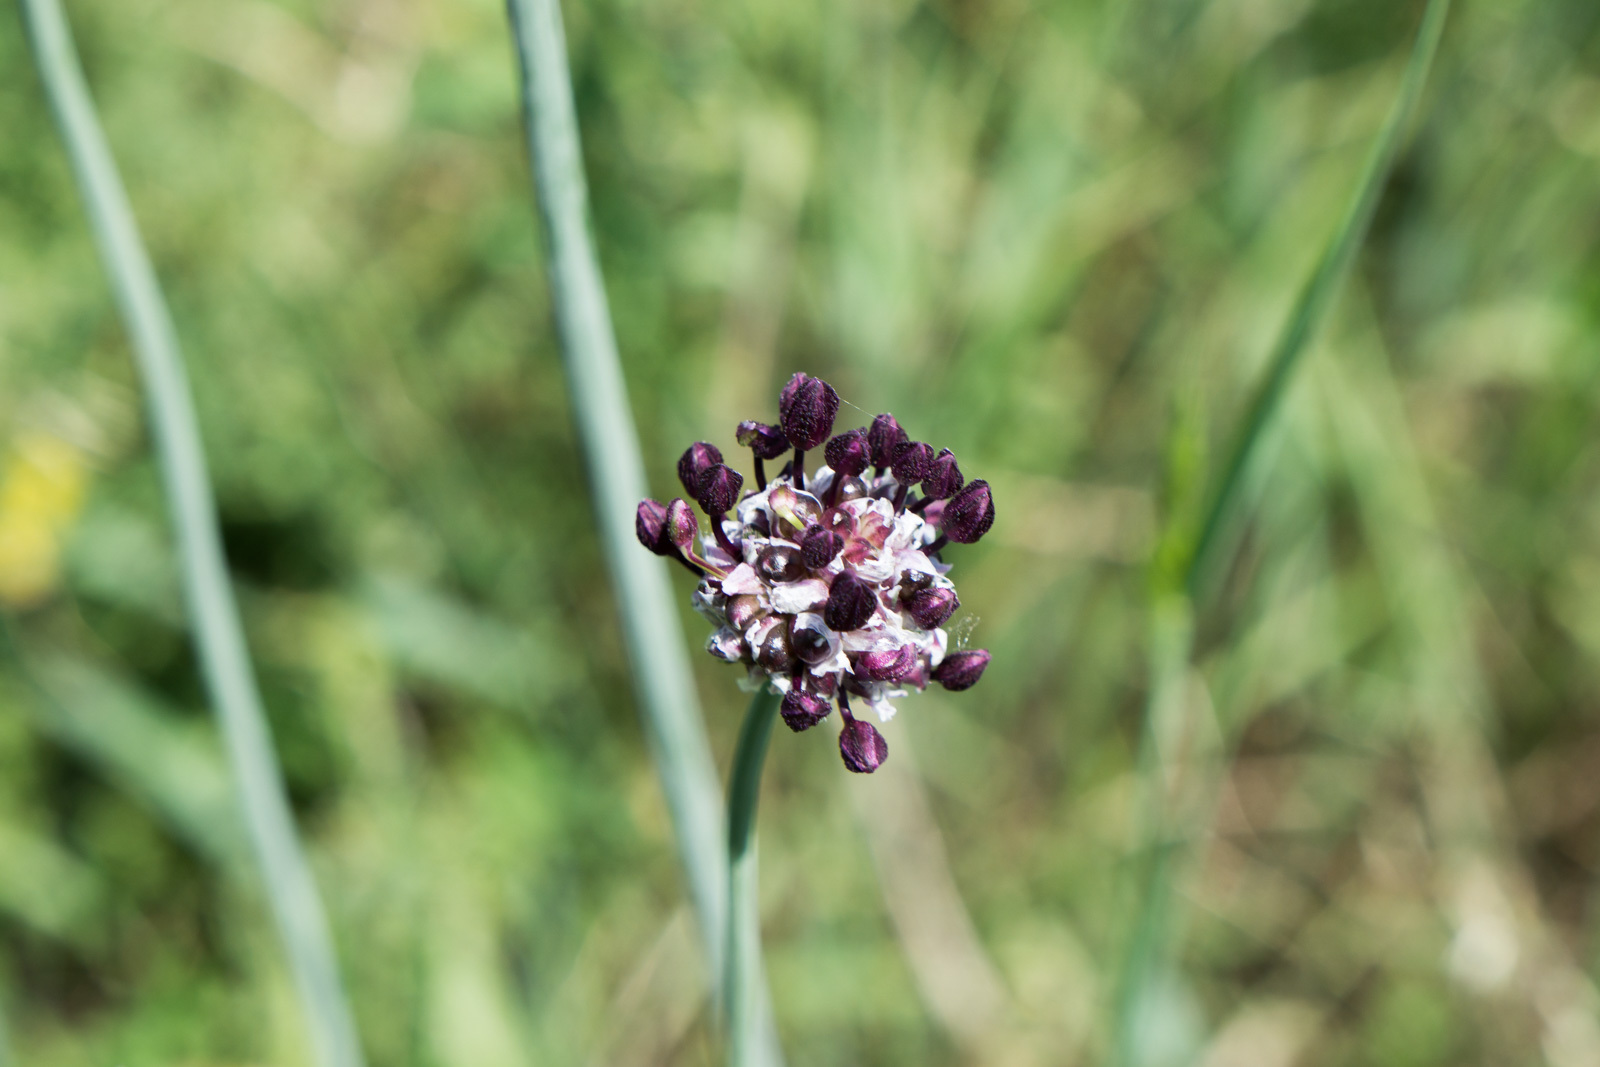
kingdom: Plantae
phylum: Tracheophyta
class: Liliopsida
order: Asparagales
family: Amaryllidaceae
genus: Allium
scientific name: Allium scorodoprasum
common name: Sand leek
